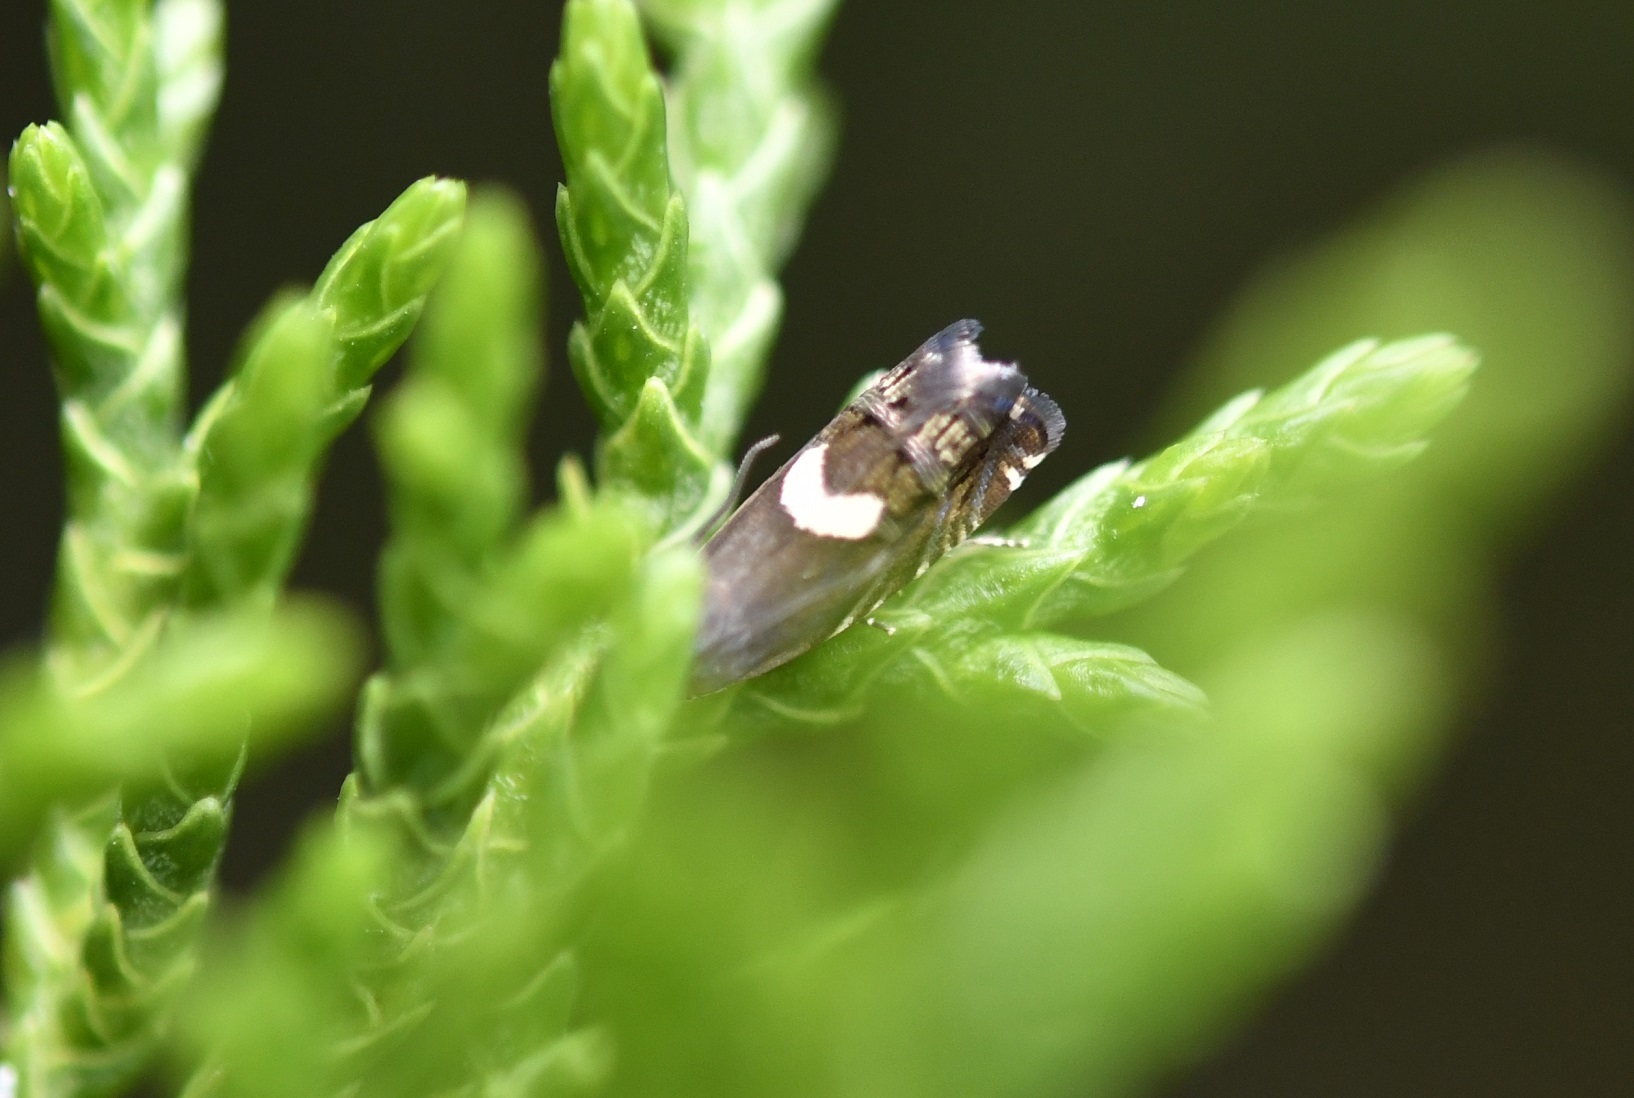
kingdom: Animalia
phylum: Arthropoda
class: Insecta
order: Lepidoptera
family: Tortricidae
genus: Grapholita
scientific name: Grapholita fana
